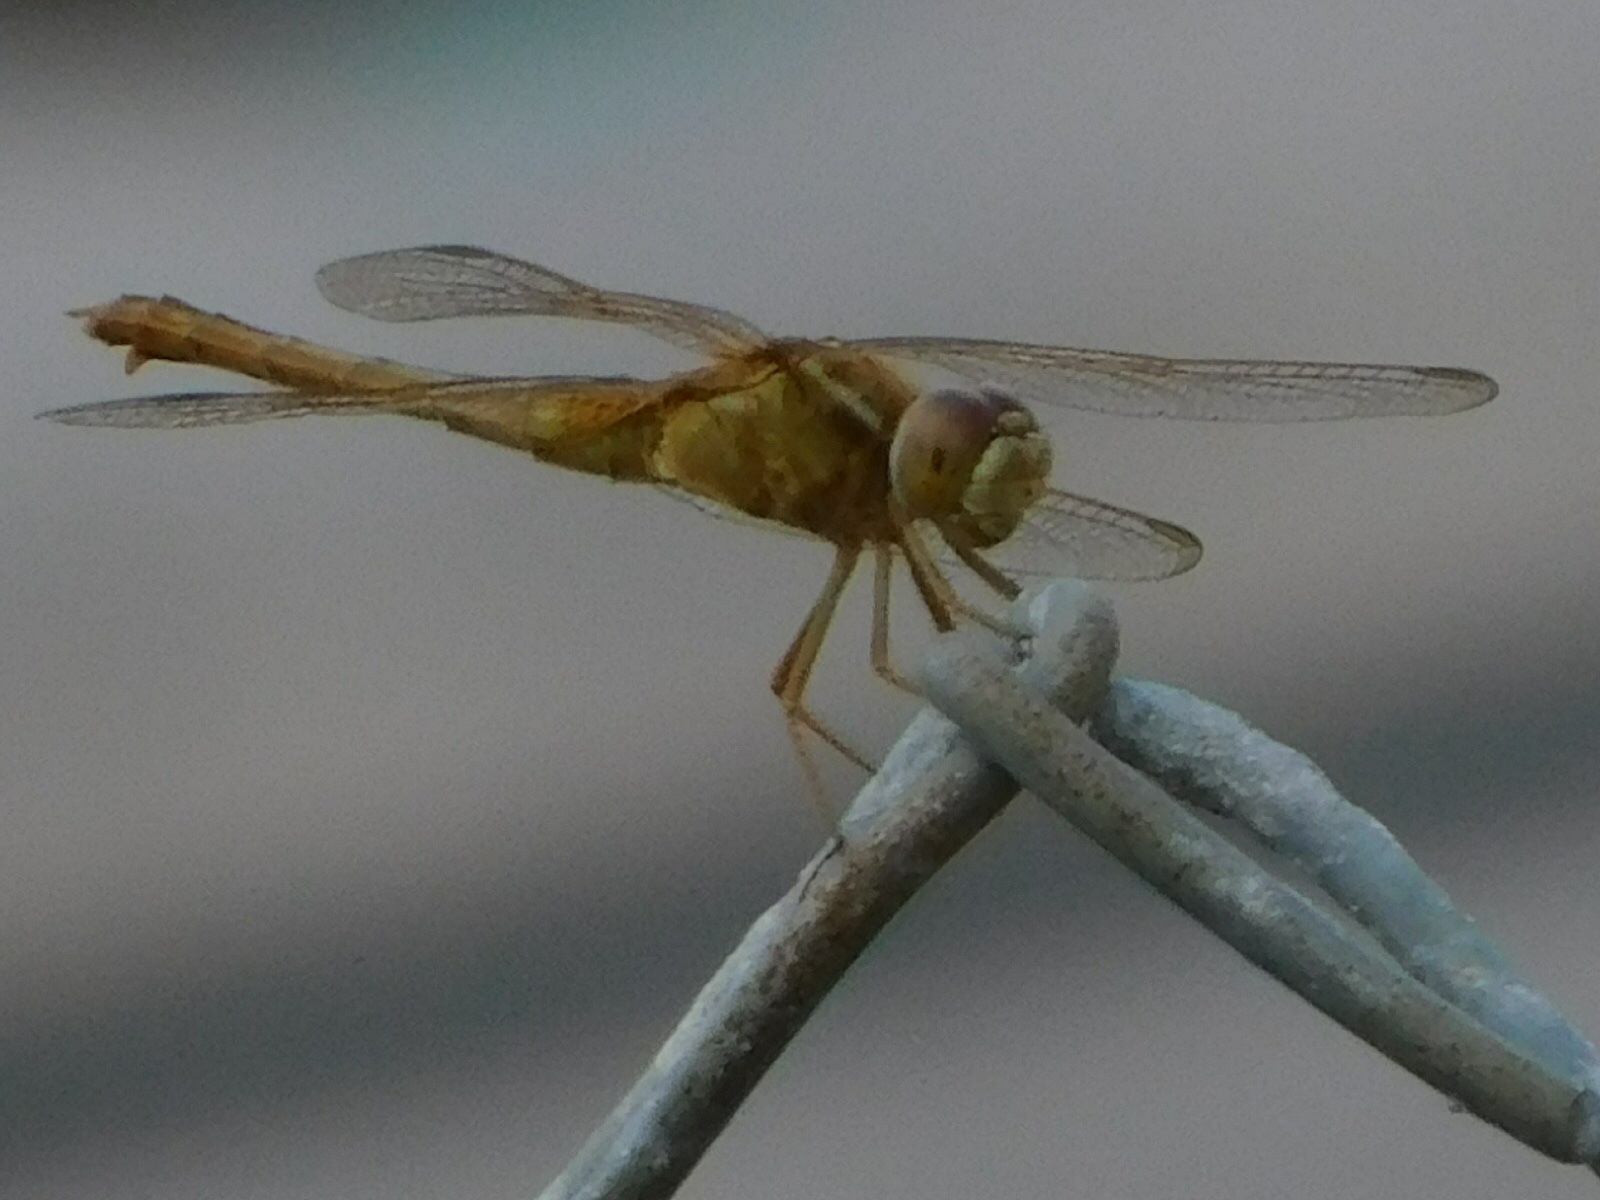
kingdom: Animalia
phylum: Arthropoda
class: Insecta
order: Odonata
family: Libellulidae
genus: Crocothemis
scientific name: Crocothemis servilia
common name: Scarlet skimmer
